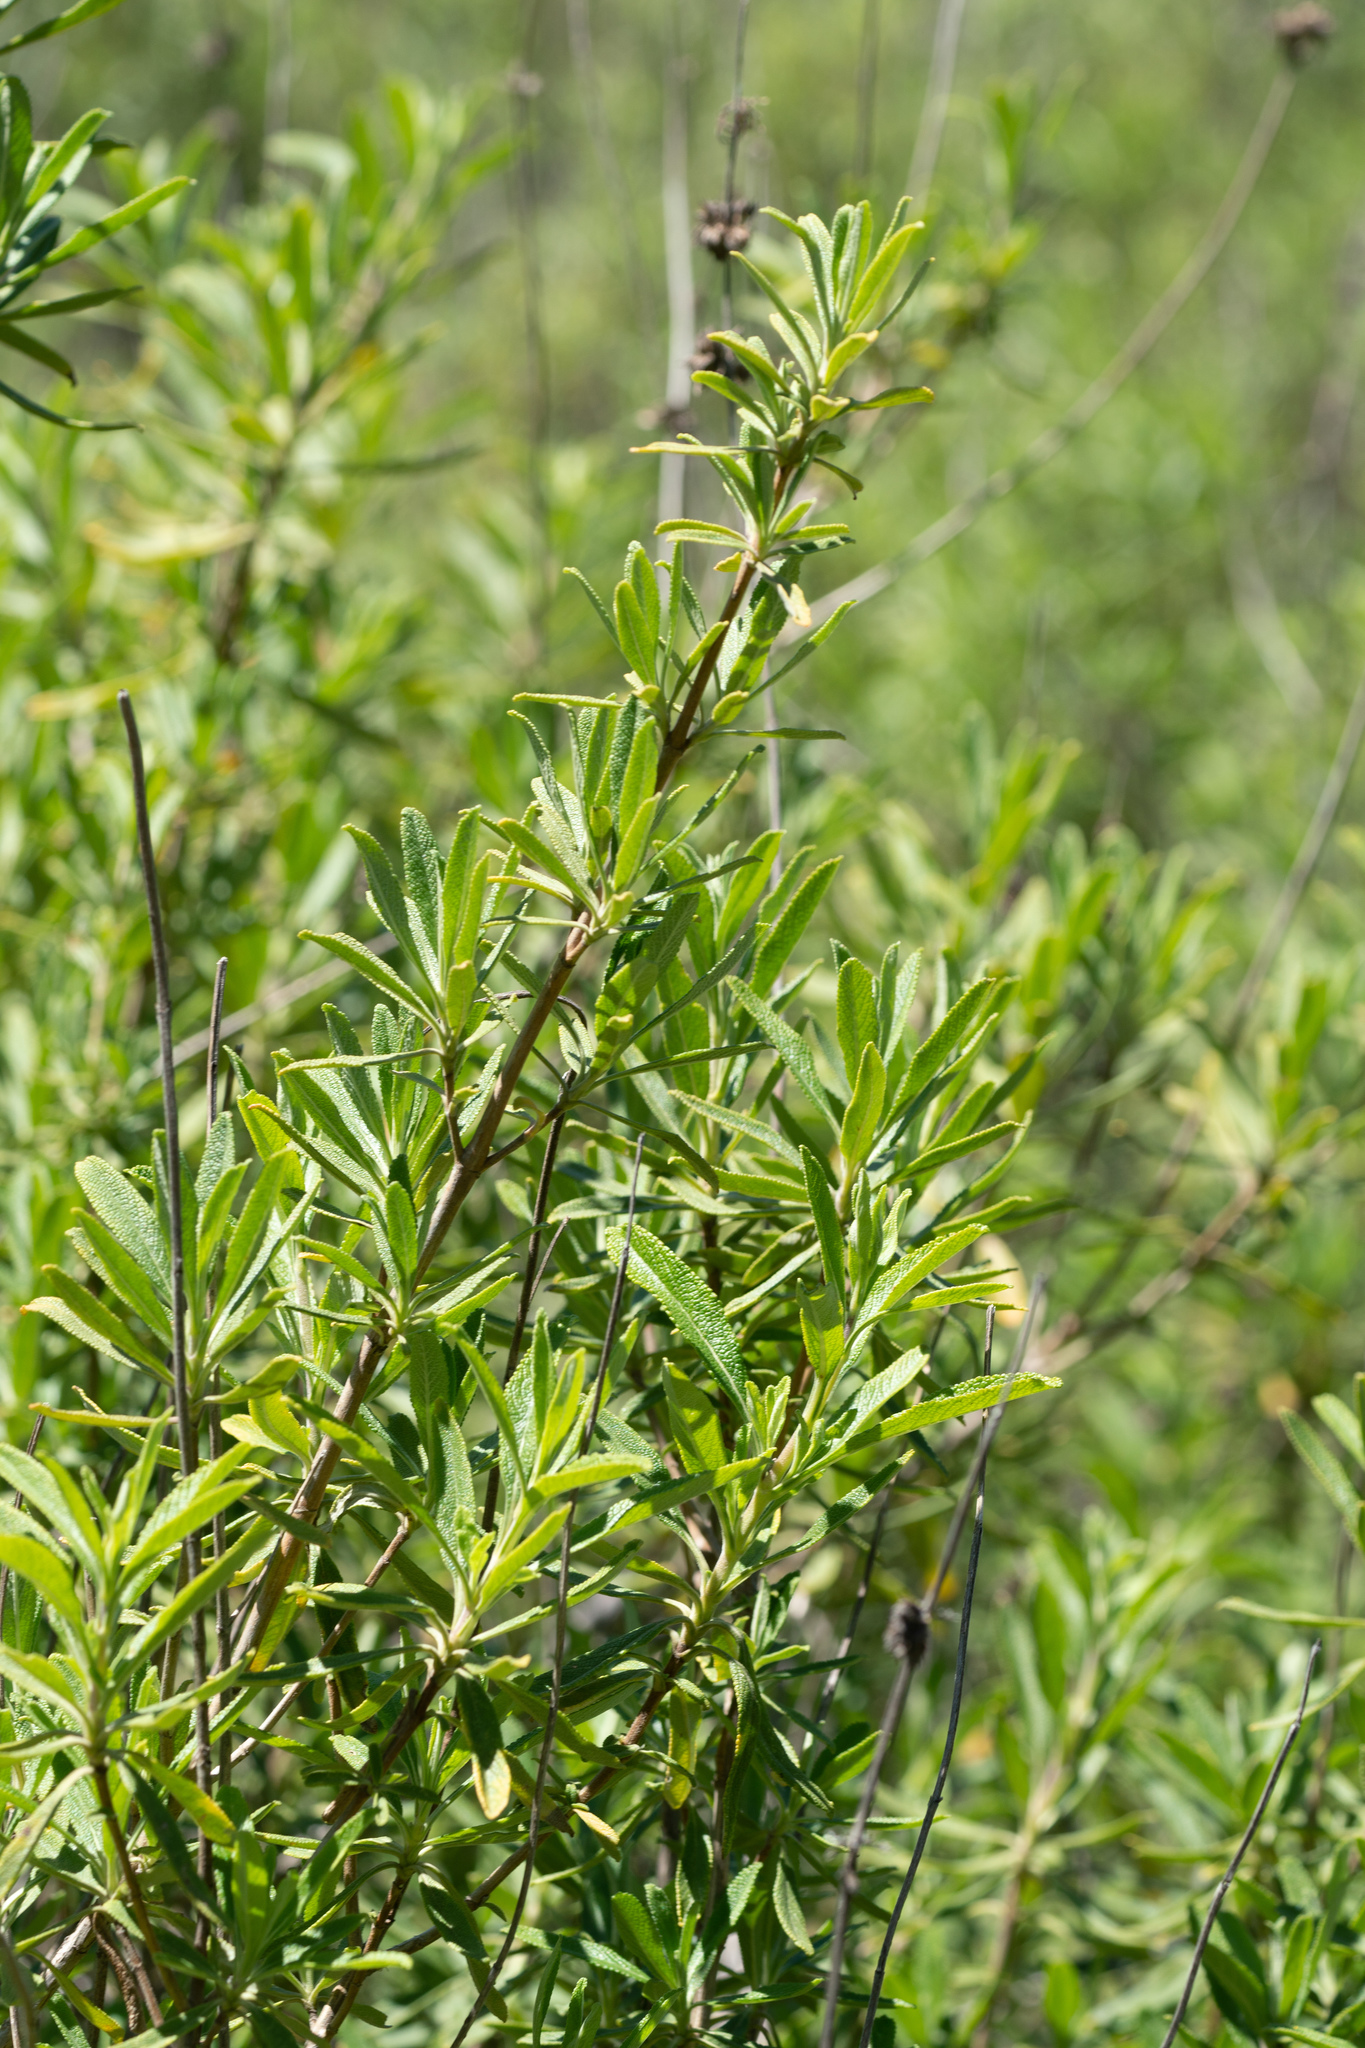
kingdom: Plantae
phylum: Tracheophyta
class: Magnoliopsida
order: Lamiales
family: Lamiaceae
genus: Salvia
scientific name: Salvia mellifera
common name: Black sage
